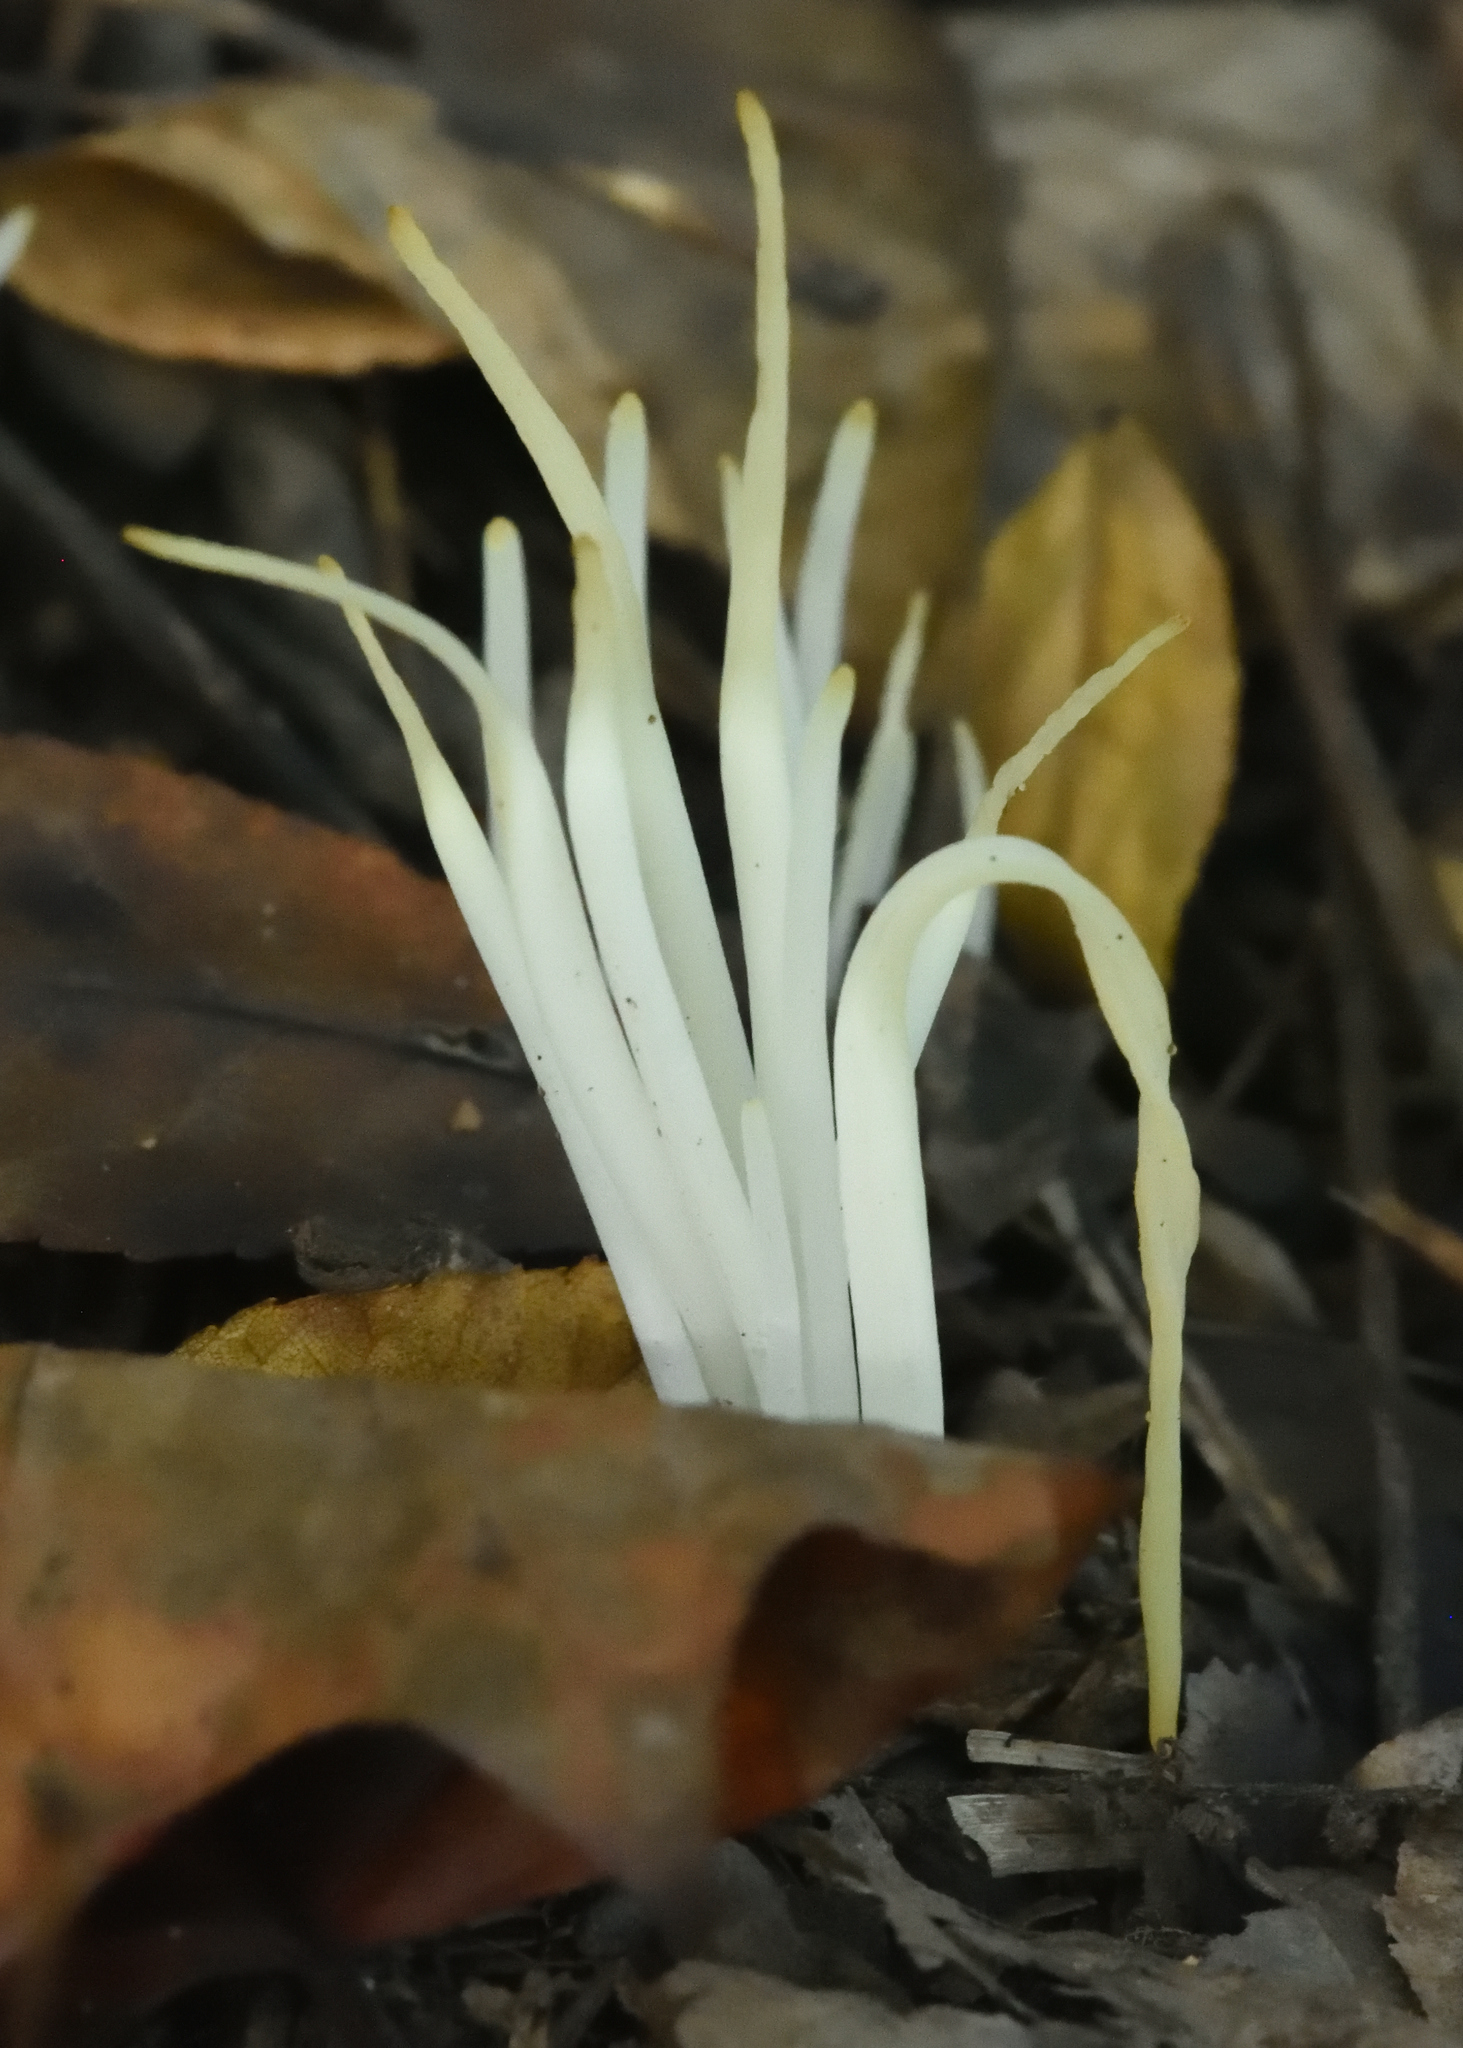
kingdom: Fungi
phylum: Basidiomycota
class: Agaricomycetes
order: Agaricales
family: Clavariaceae
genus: Clavaria
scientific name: Clavaria fragilis
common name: White spindles
